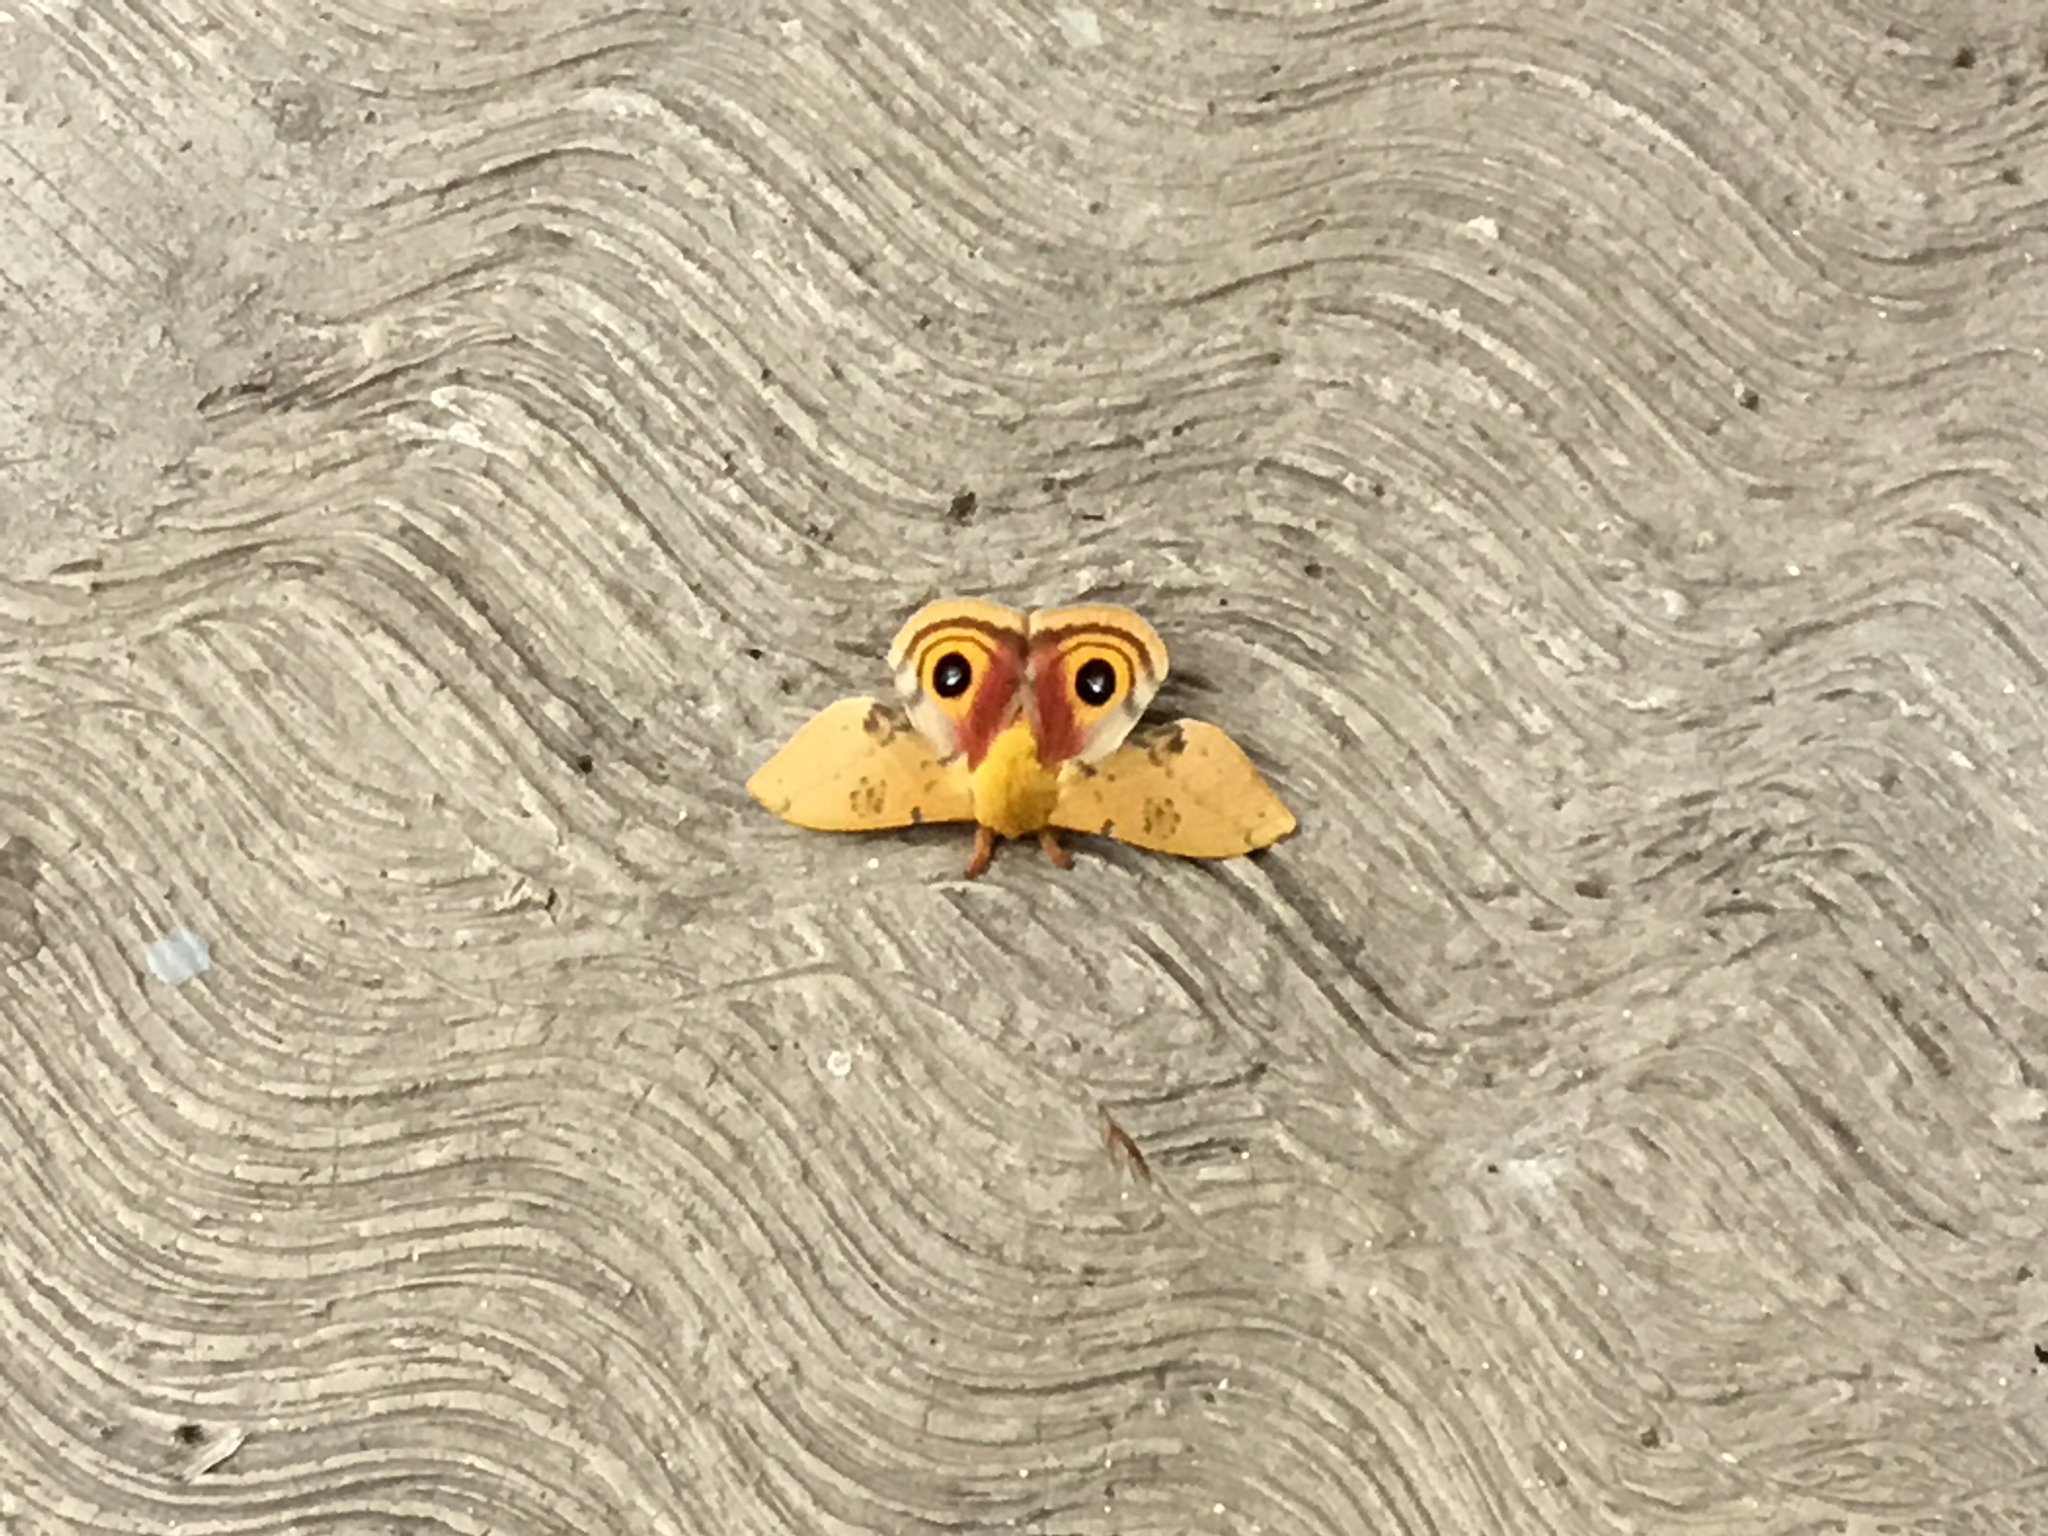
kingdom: Animalia
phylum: Arthropoda
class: Insecta
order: Lepidoptera
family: Saturniidae
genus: Automeris
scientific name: Automeris io
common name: Io moth
